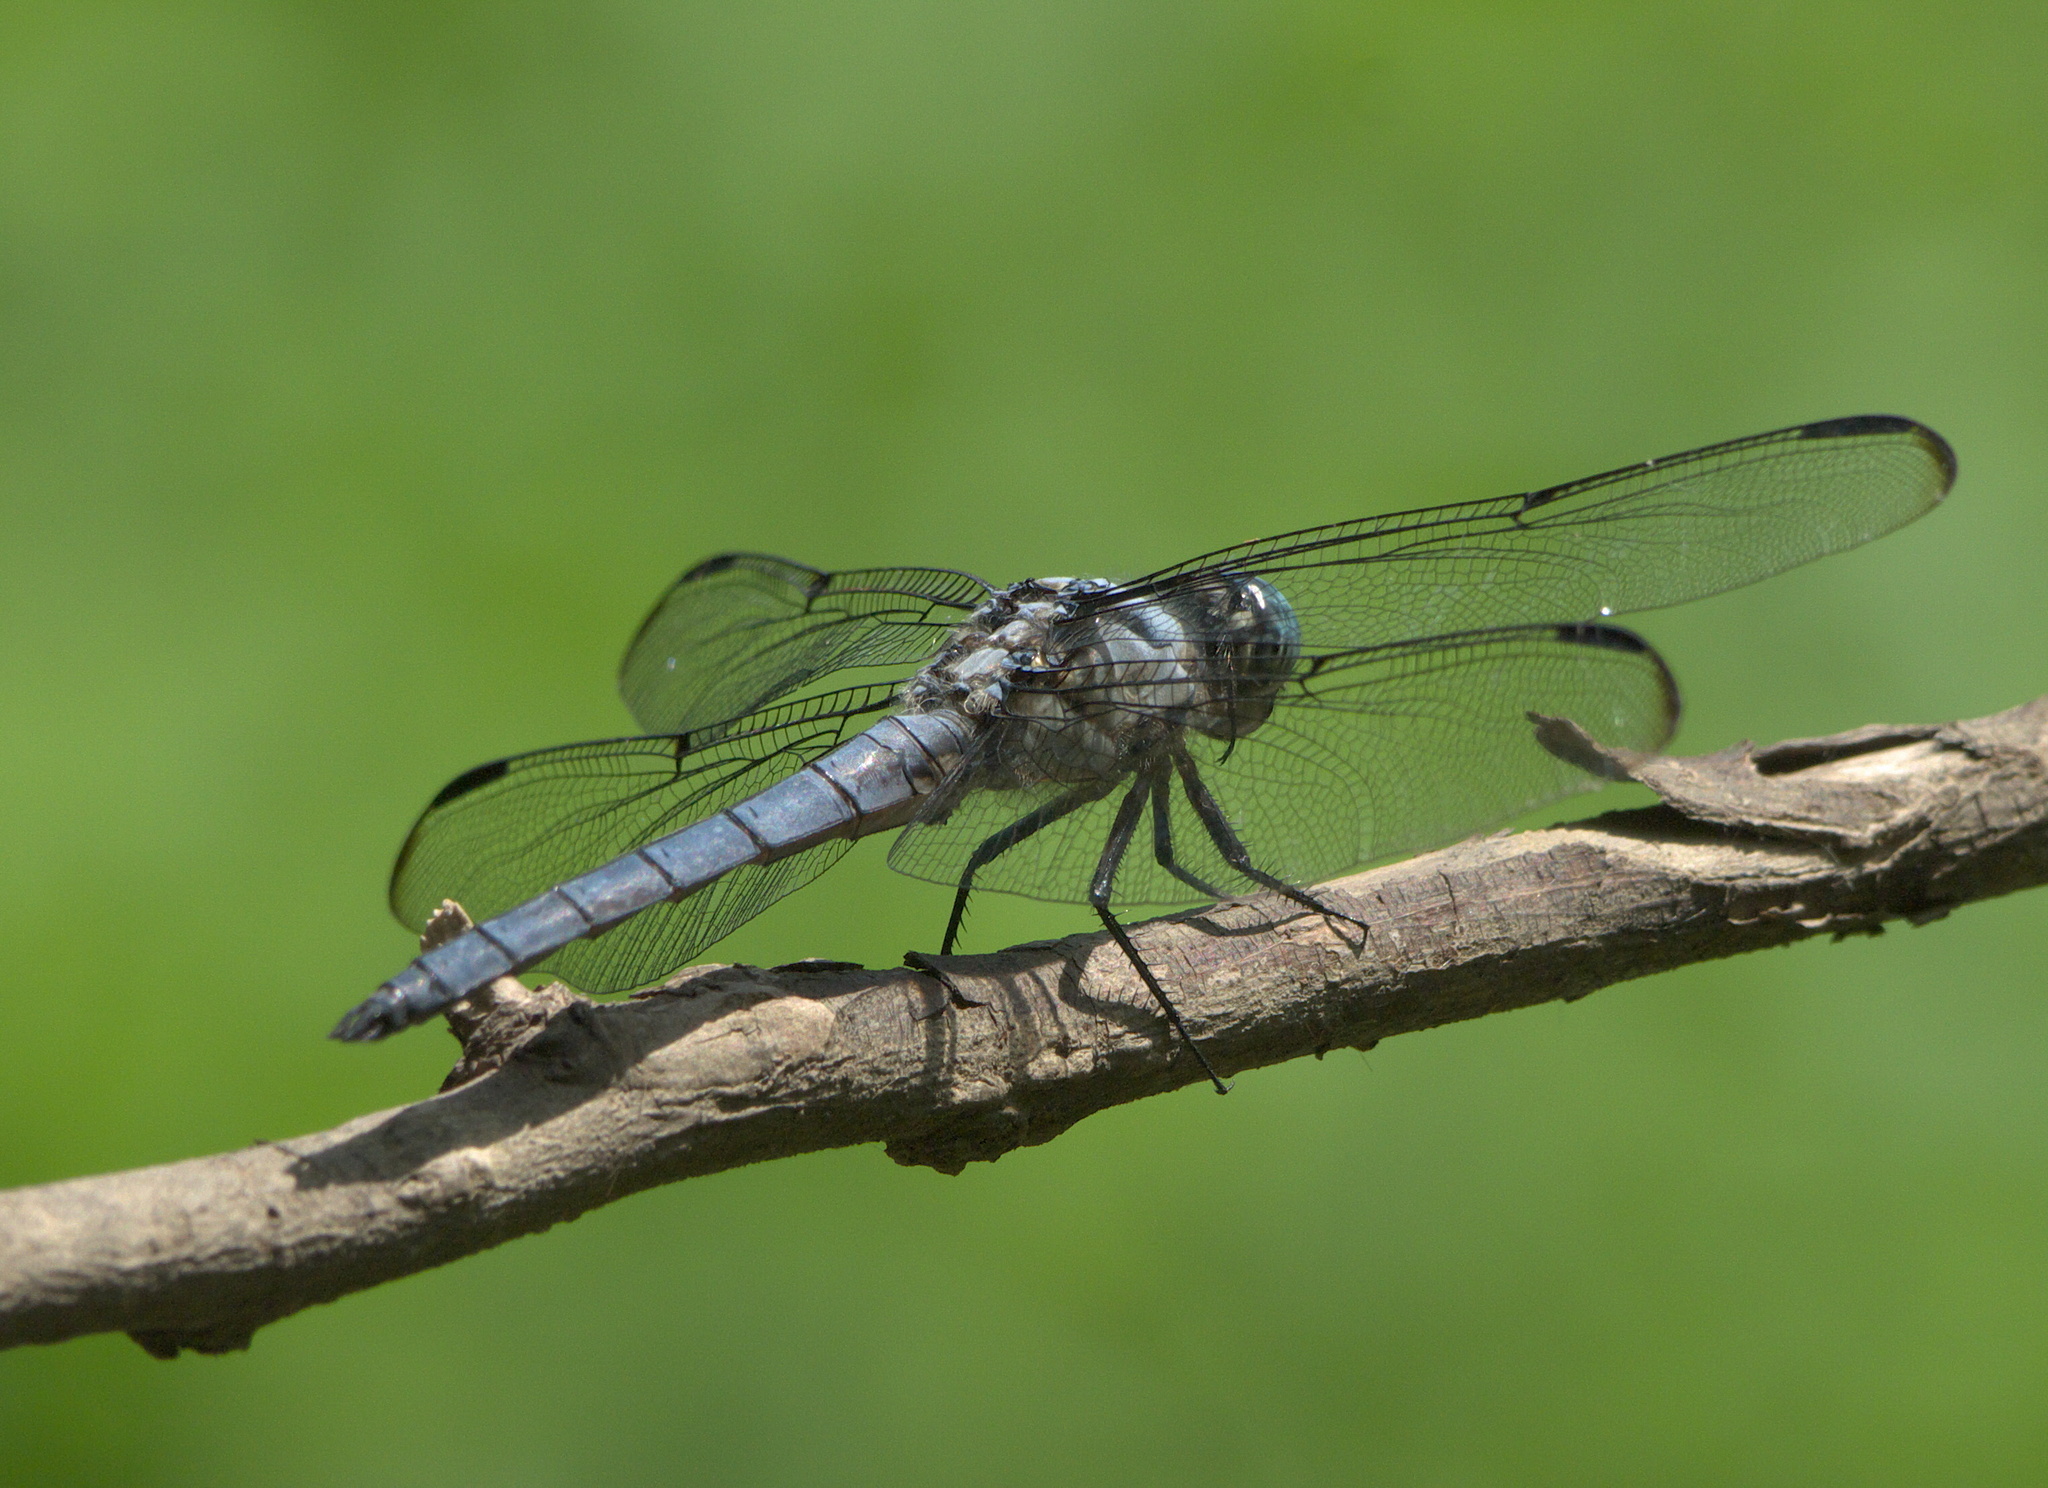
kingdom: Animalia
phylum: Arthropoda
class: Insecta
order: Odonata
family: Libellulidae
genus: Libellula
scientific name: Libellula vibrans
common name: Great blue skimmer
